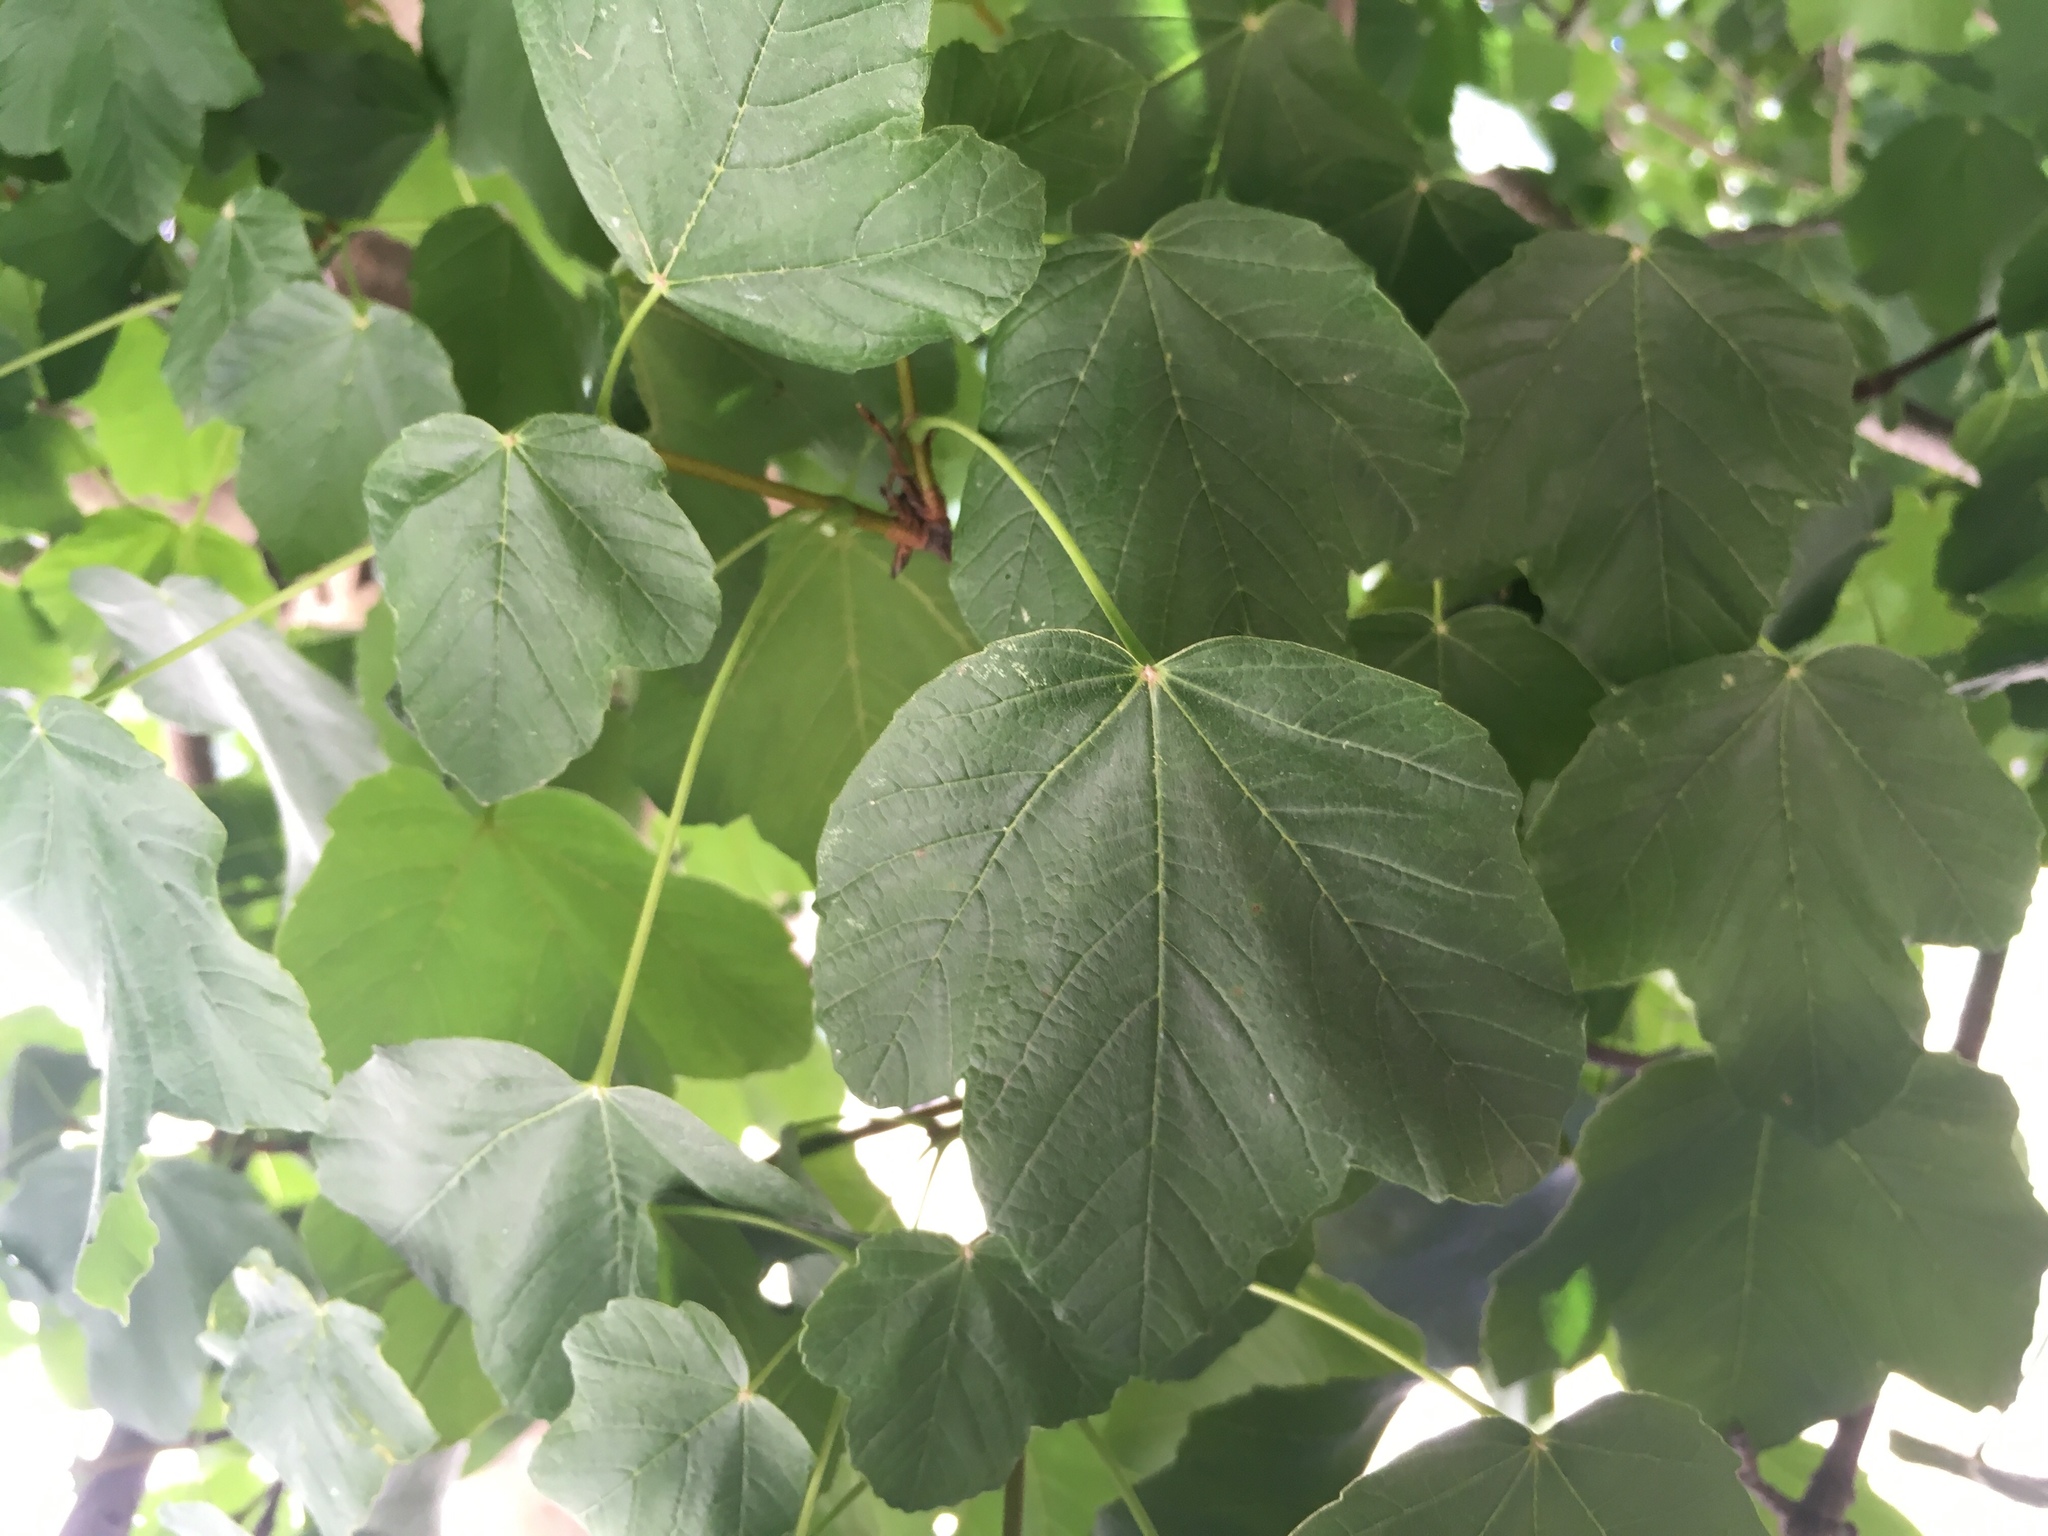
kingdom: Plantae
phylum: Tracheophyta
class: Magnoliopsida
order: Sapindales
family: Sapindaceae
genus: Acer
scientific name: Acer opalus
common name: Italian maple
